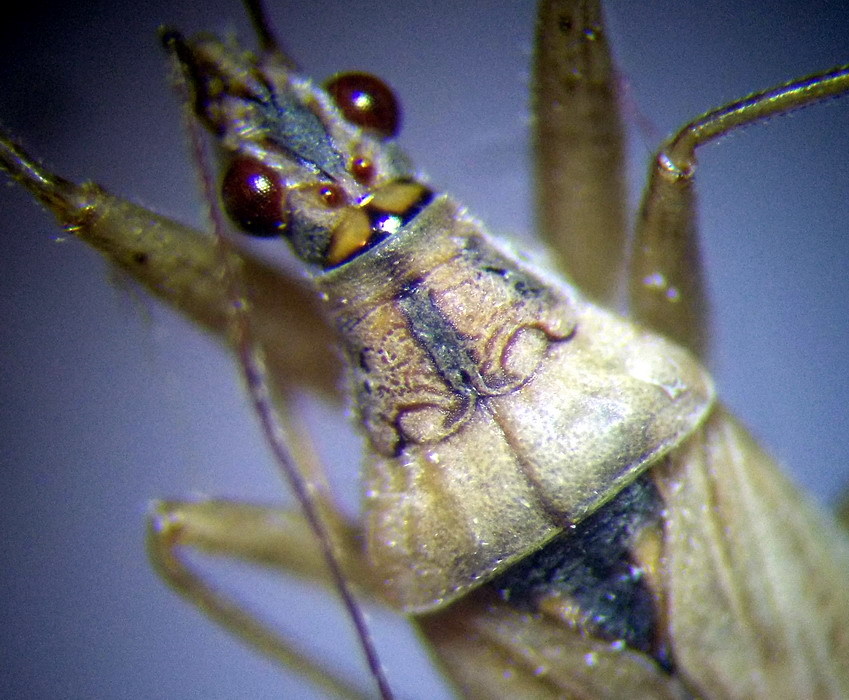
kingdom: Animalia
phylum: Arthropoda
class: Insecta
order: Hemiptera
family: Nabidae
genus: Nabis
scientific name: Nabis pseudoferus
